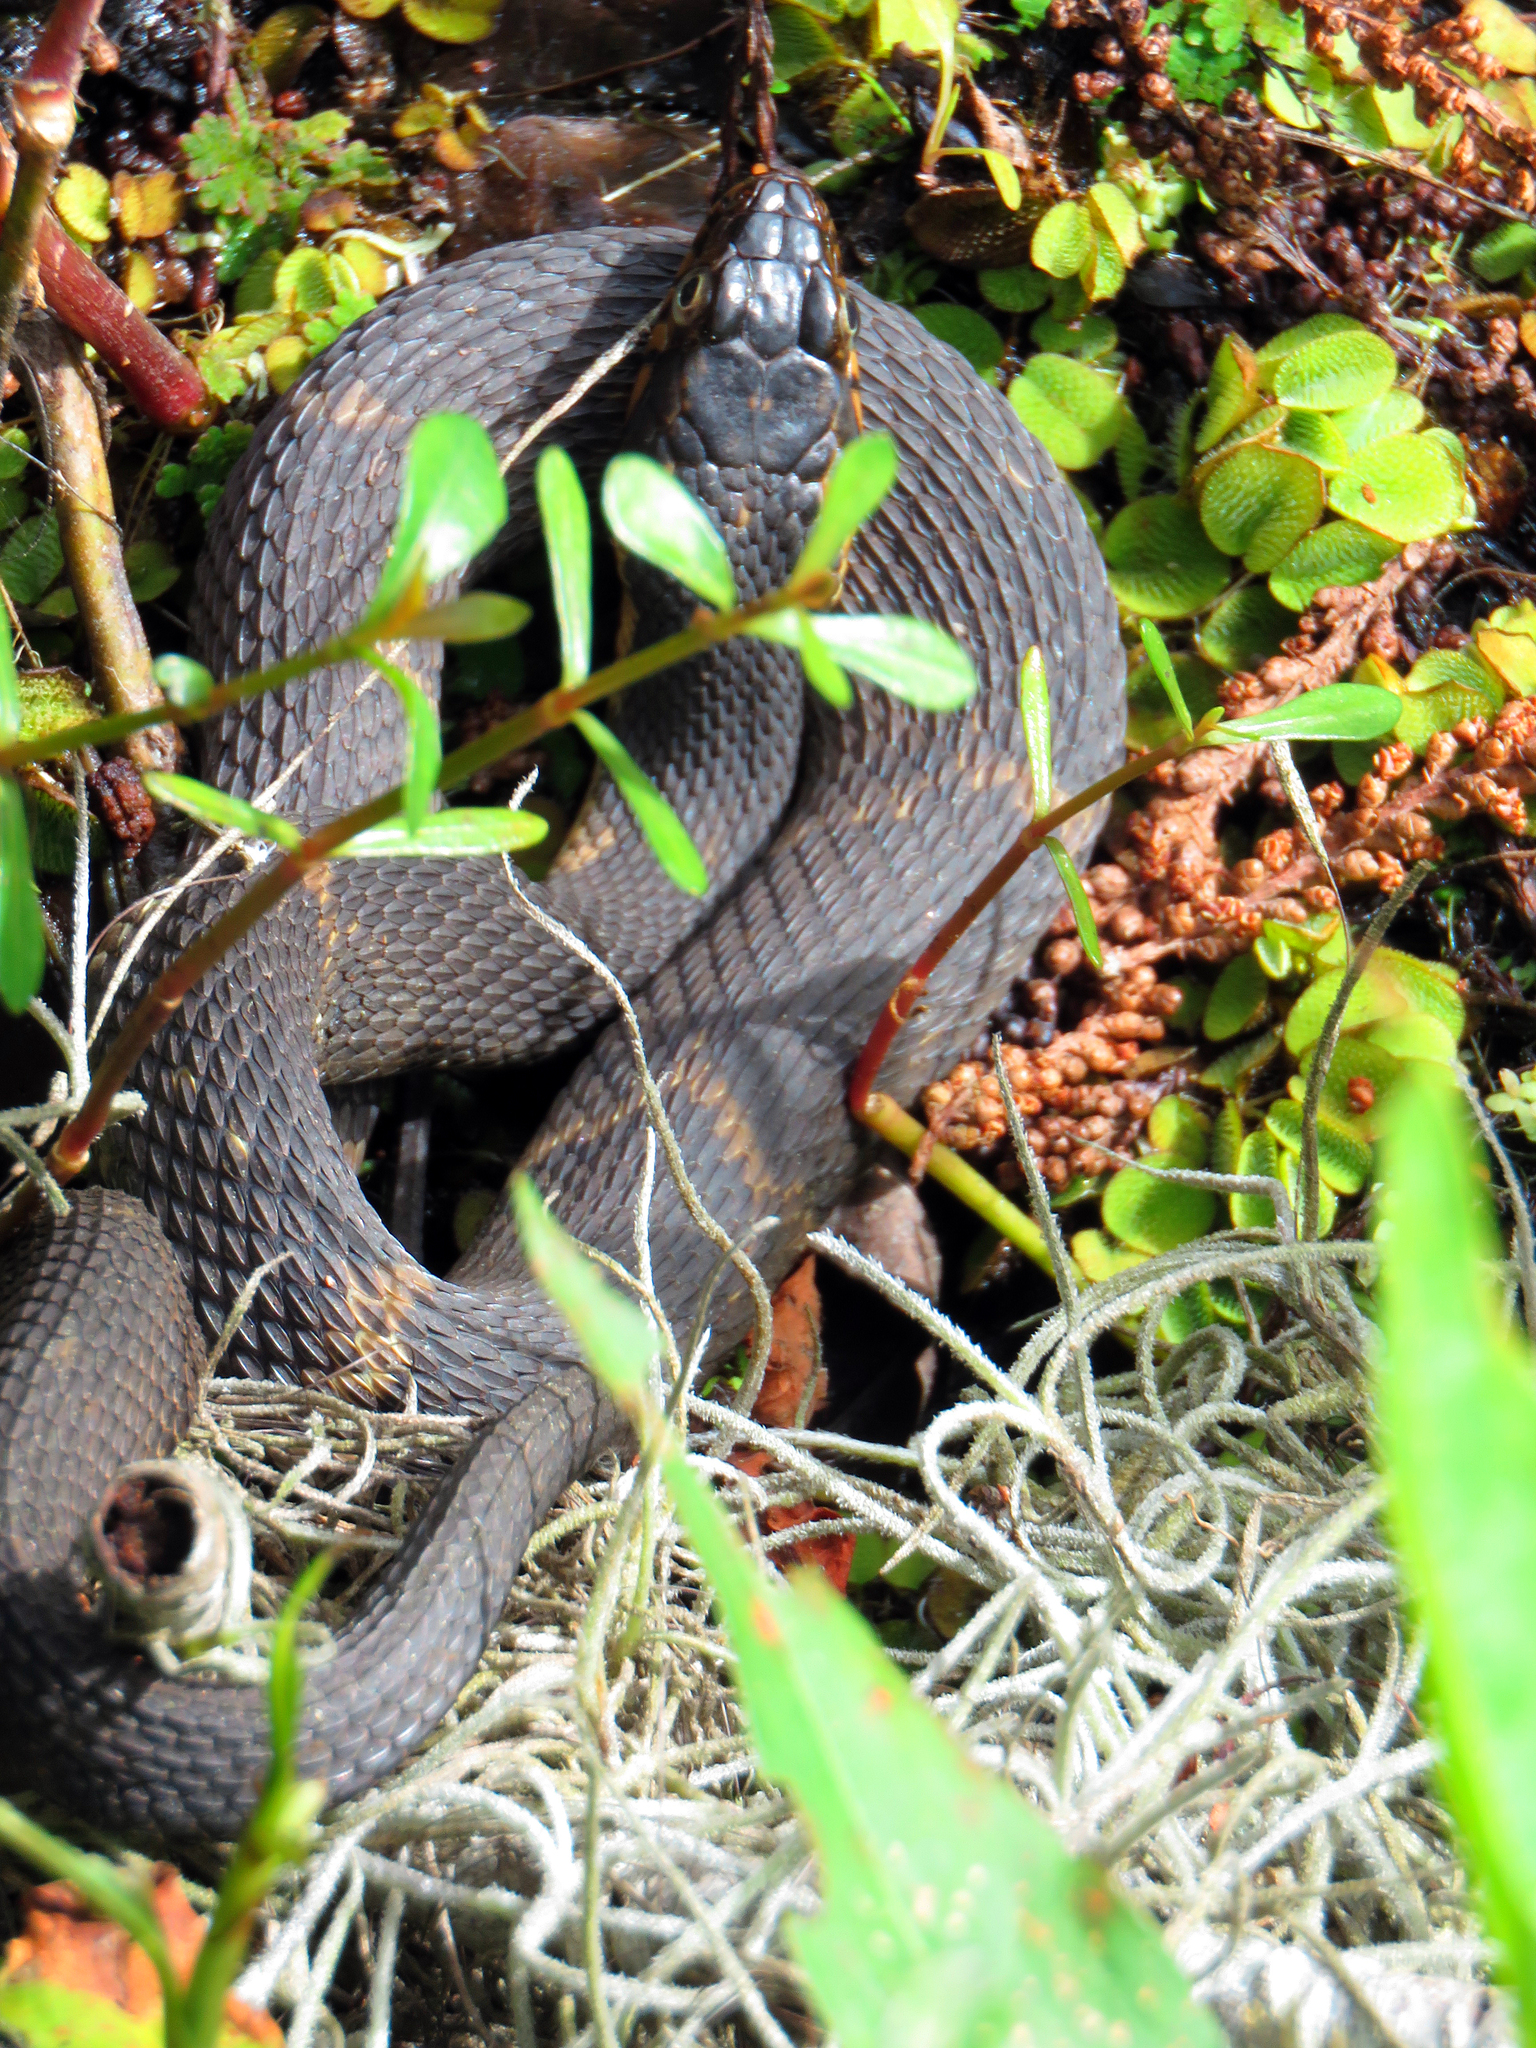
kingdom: Animalia
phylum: Chordata
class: Squamata
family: Colubridae
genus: Nerodia
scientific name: Nerodia fasciata
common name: Southern water snake
